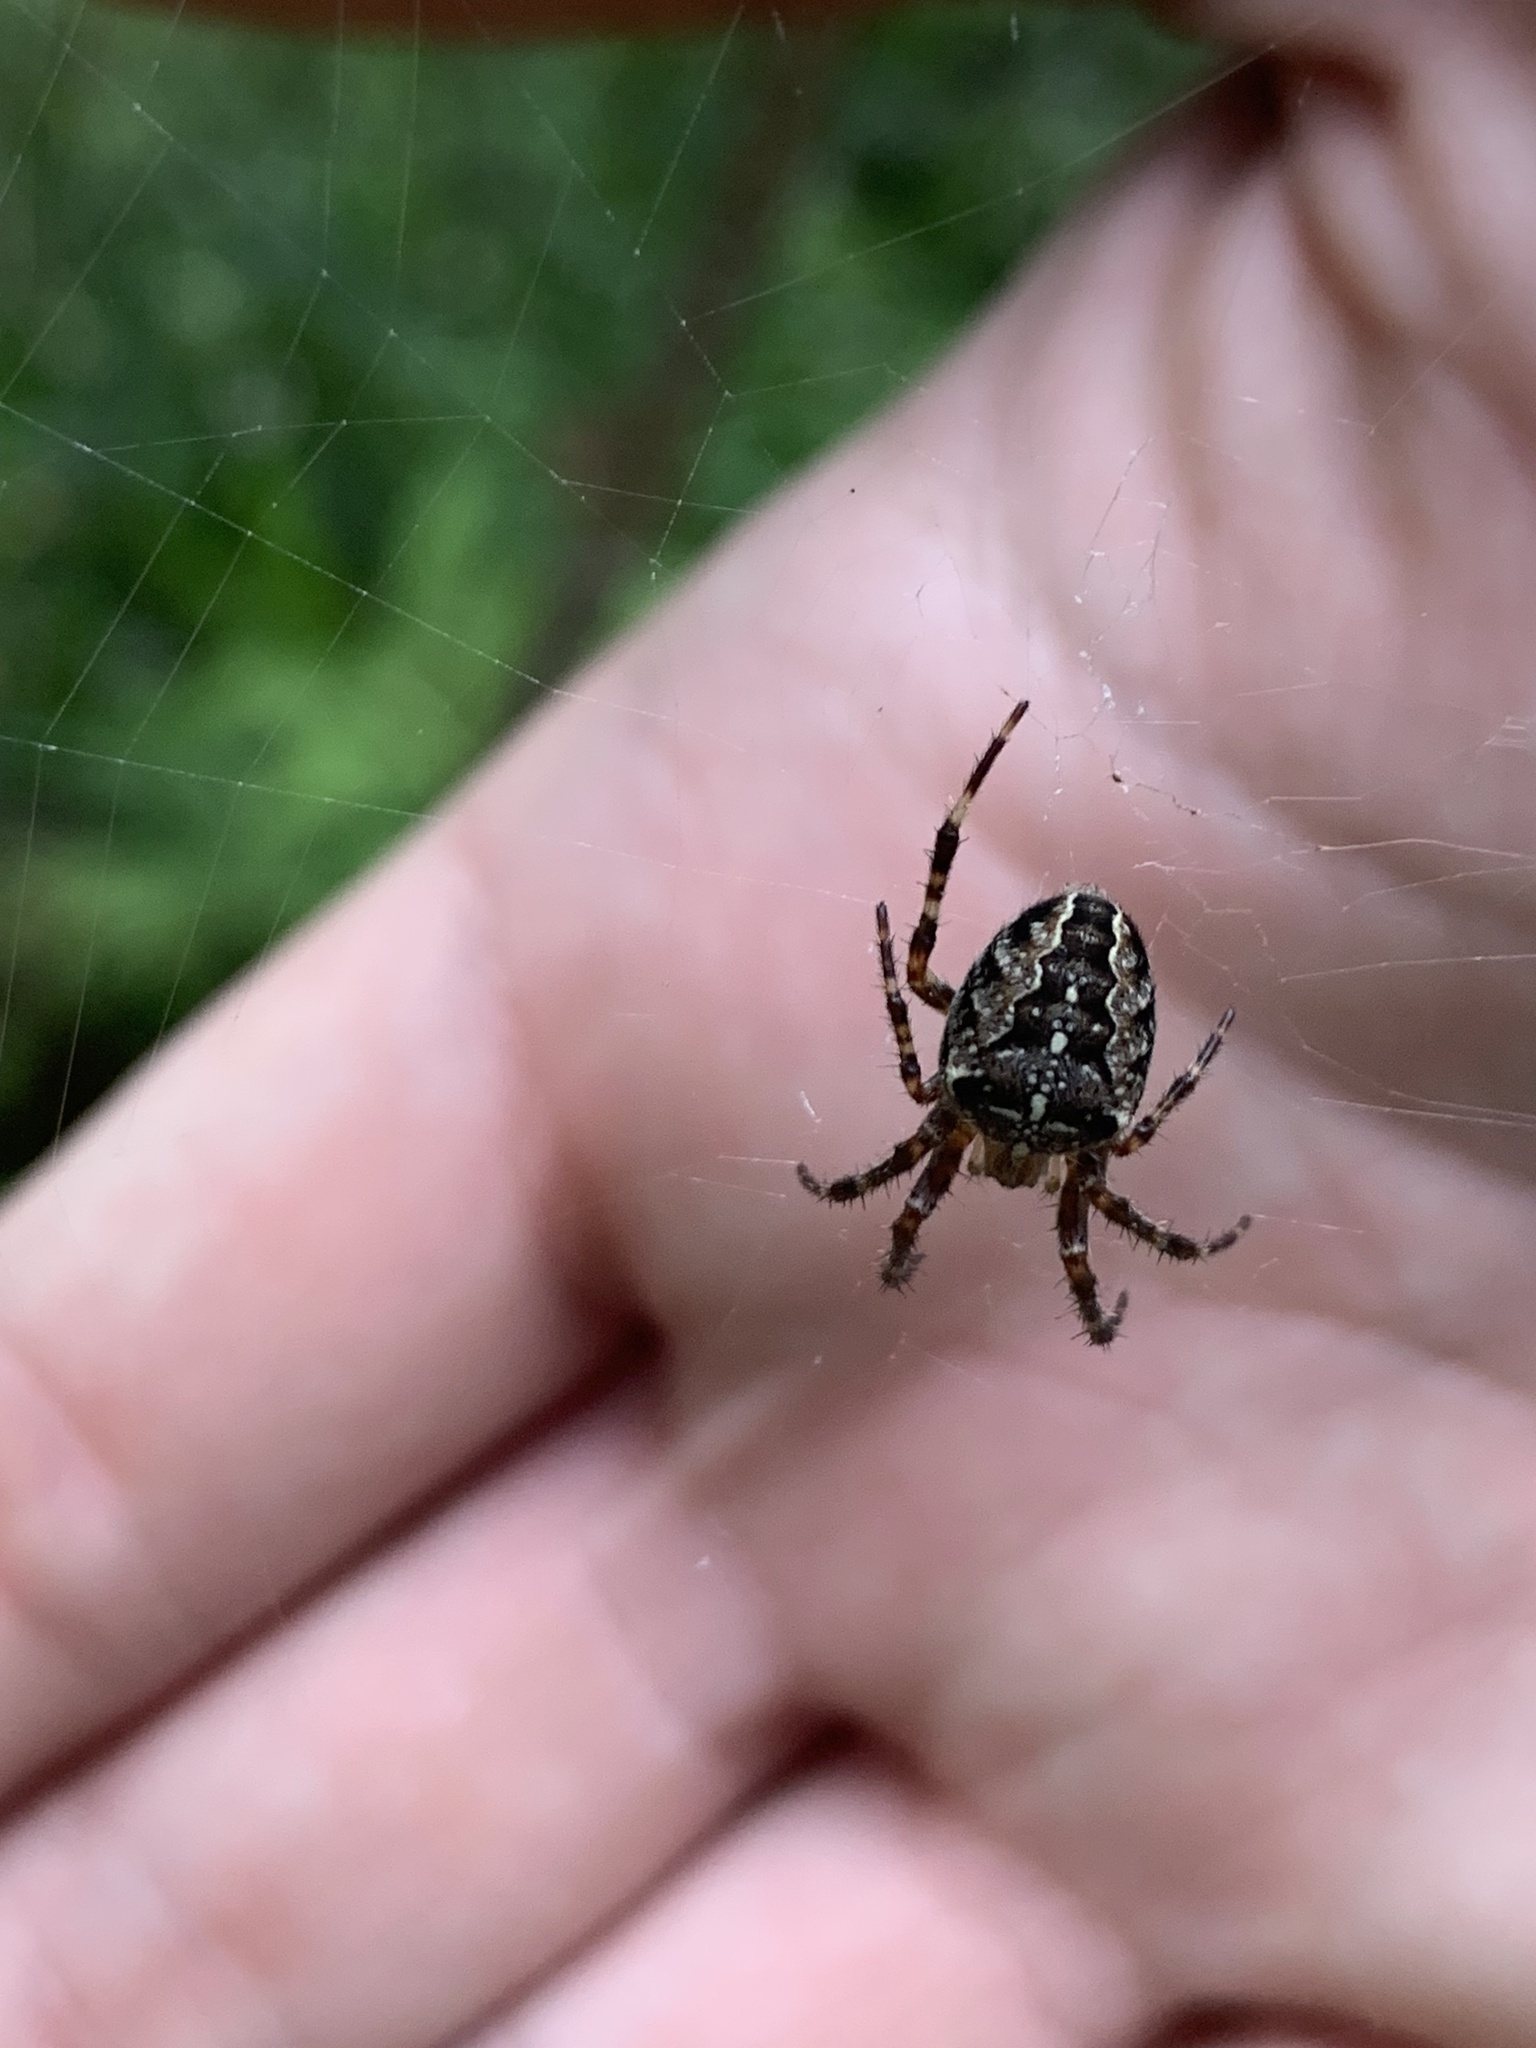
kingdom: Animalia
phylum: Arthropoda
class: Arachnida
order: Araneae
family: Araneidae
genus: Araneus
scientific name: Araneus diadematus
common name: Cross orbweaver
